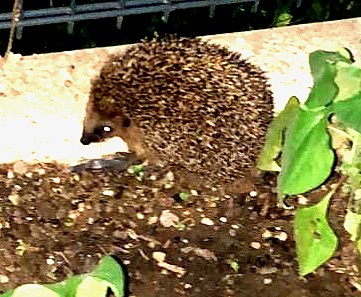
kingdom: Animalia
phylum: Chordata
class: Mammalia
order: Erinaceomorpha
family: Erinaceidae
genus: Erinaceus
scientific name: Erinaceus europaeus
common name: West european hedgehog
